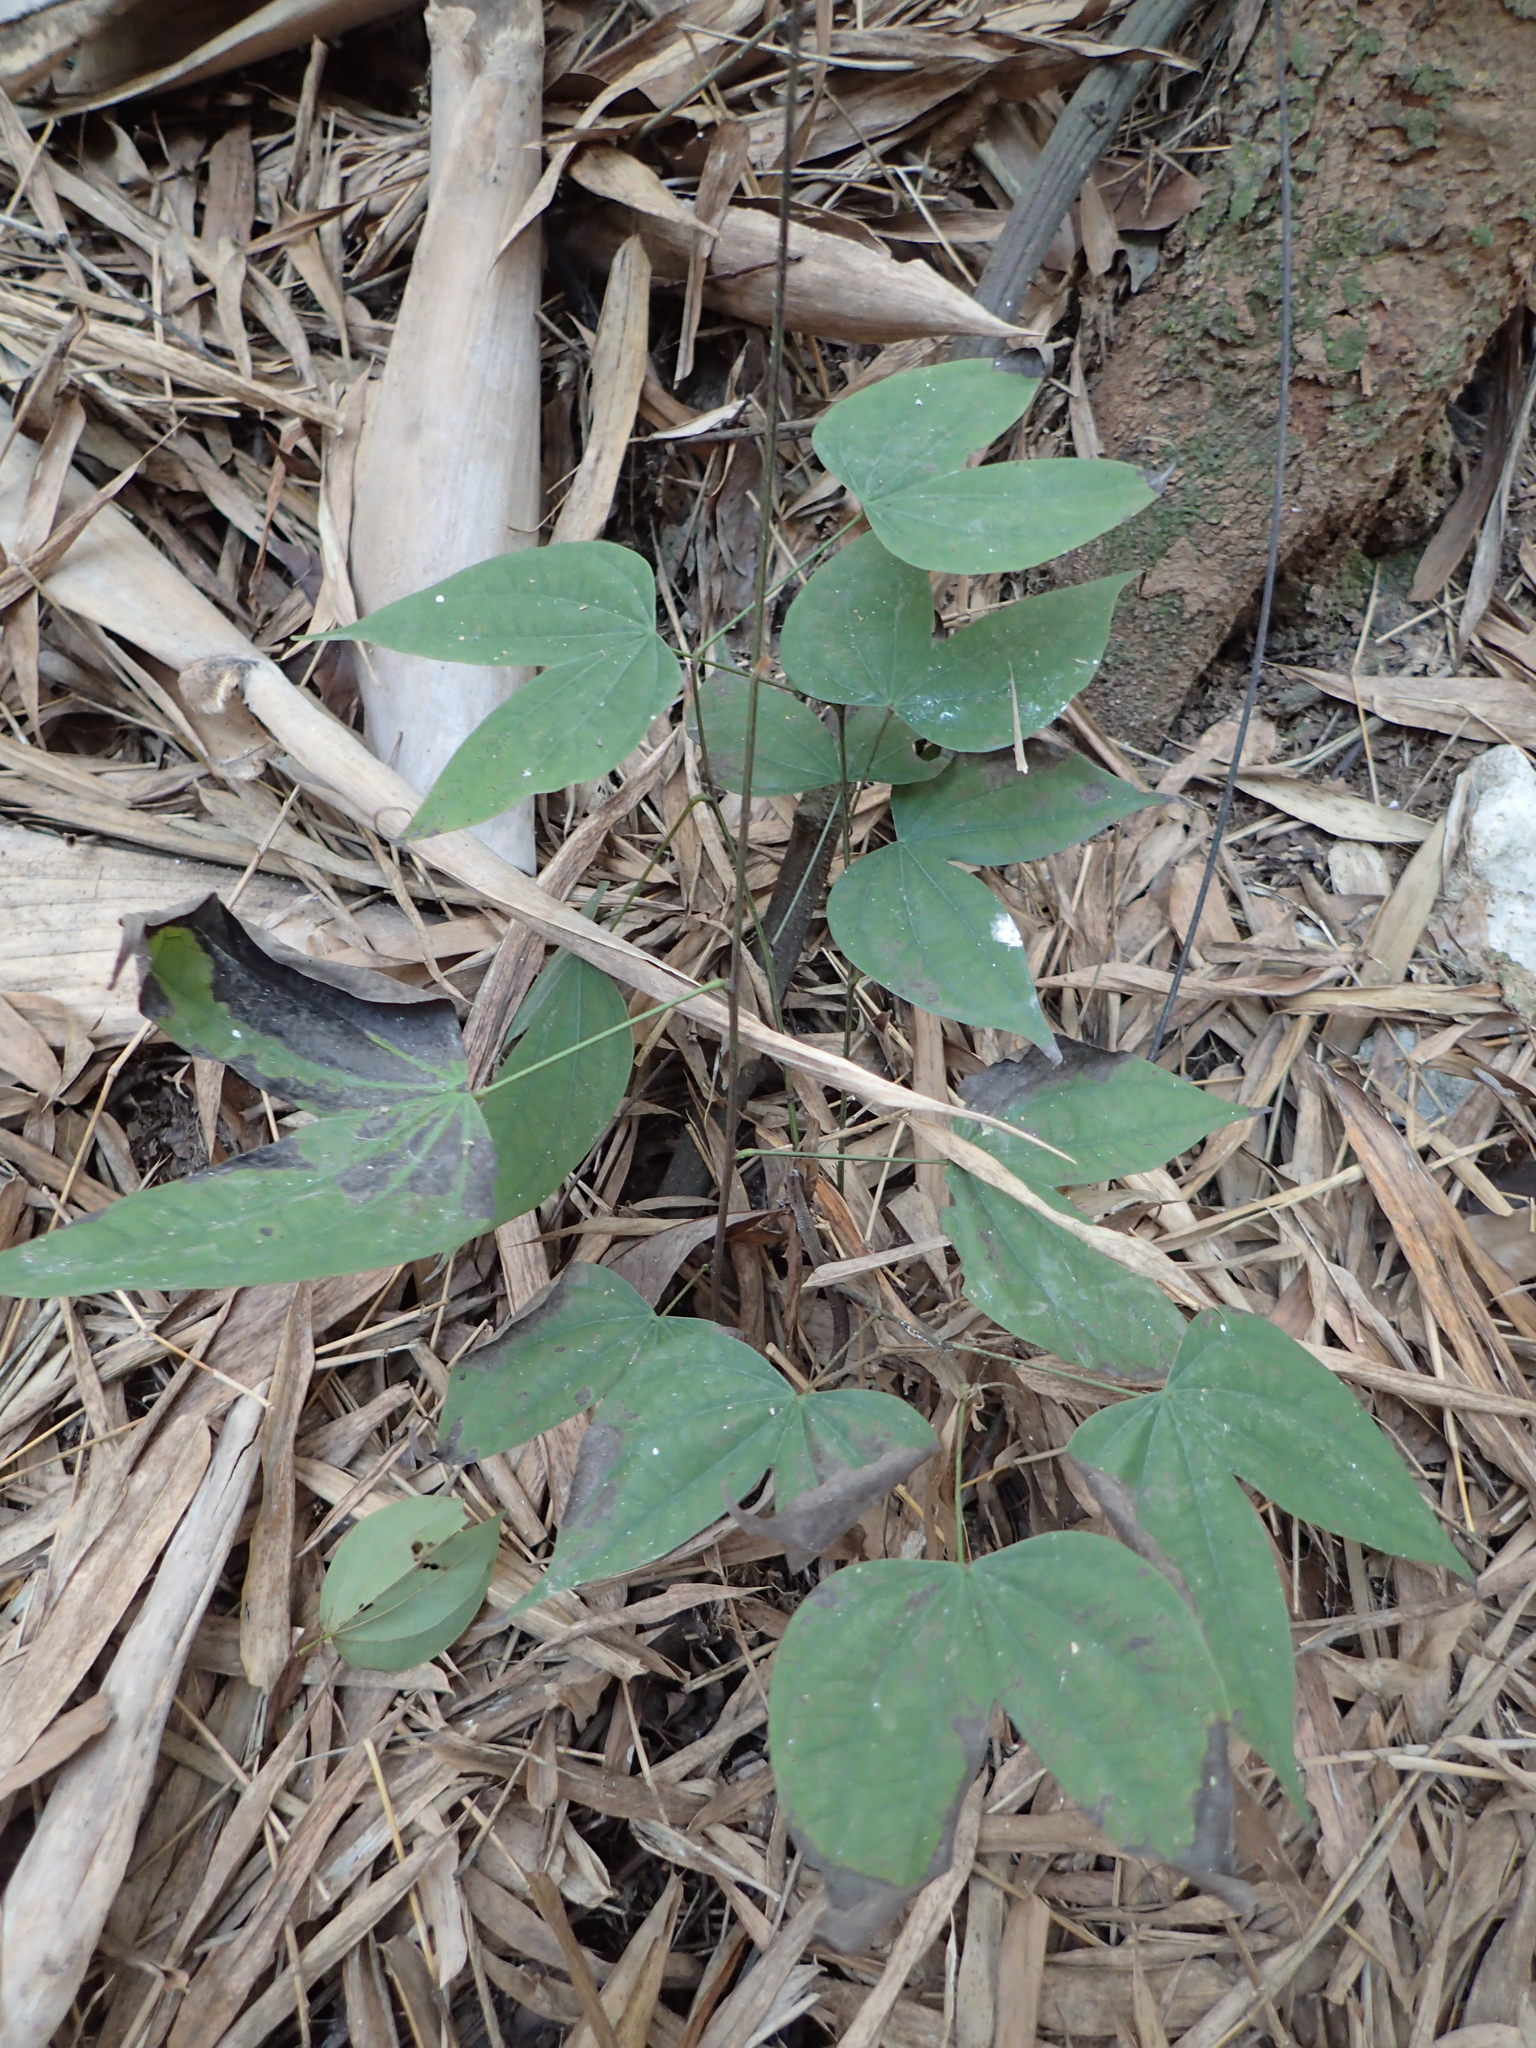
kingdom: Plantae
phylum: Tracheophyta
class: Magnoliopsida
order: Fabales
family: Fabaceae
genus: Phanera
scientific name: Phanera championii
